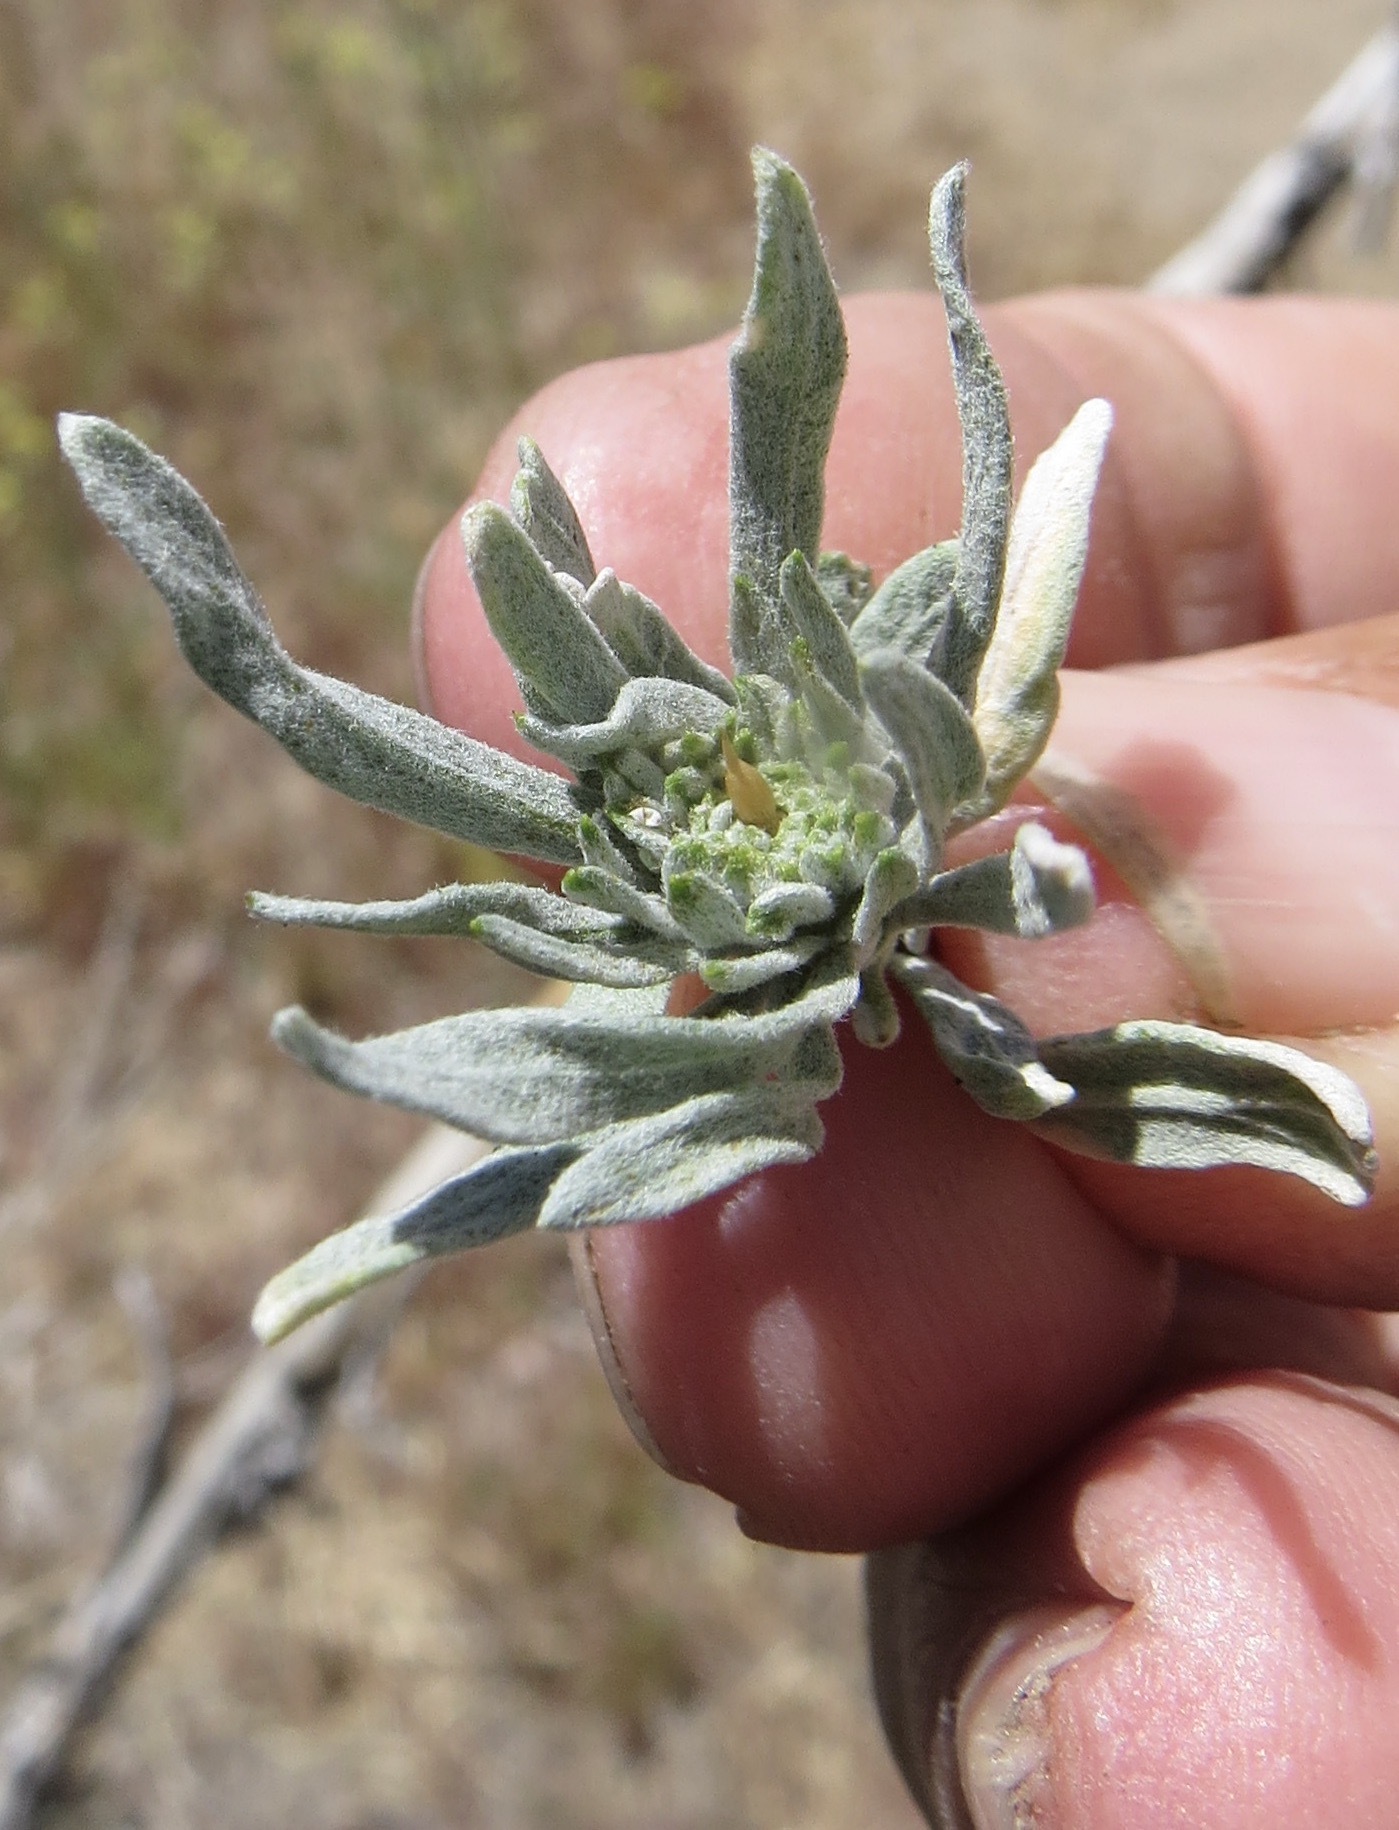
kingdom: Animalia
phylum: Arthropoda
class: Insecta
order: Diptera
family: Cecidomyiidae
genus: Rhopalomyia
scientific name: Rhopalomyia conica
